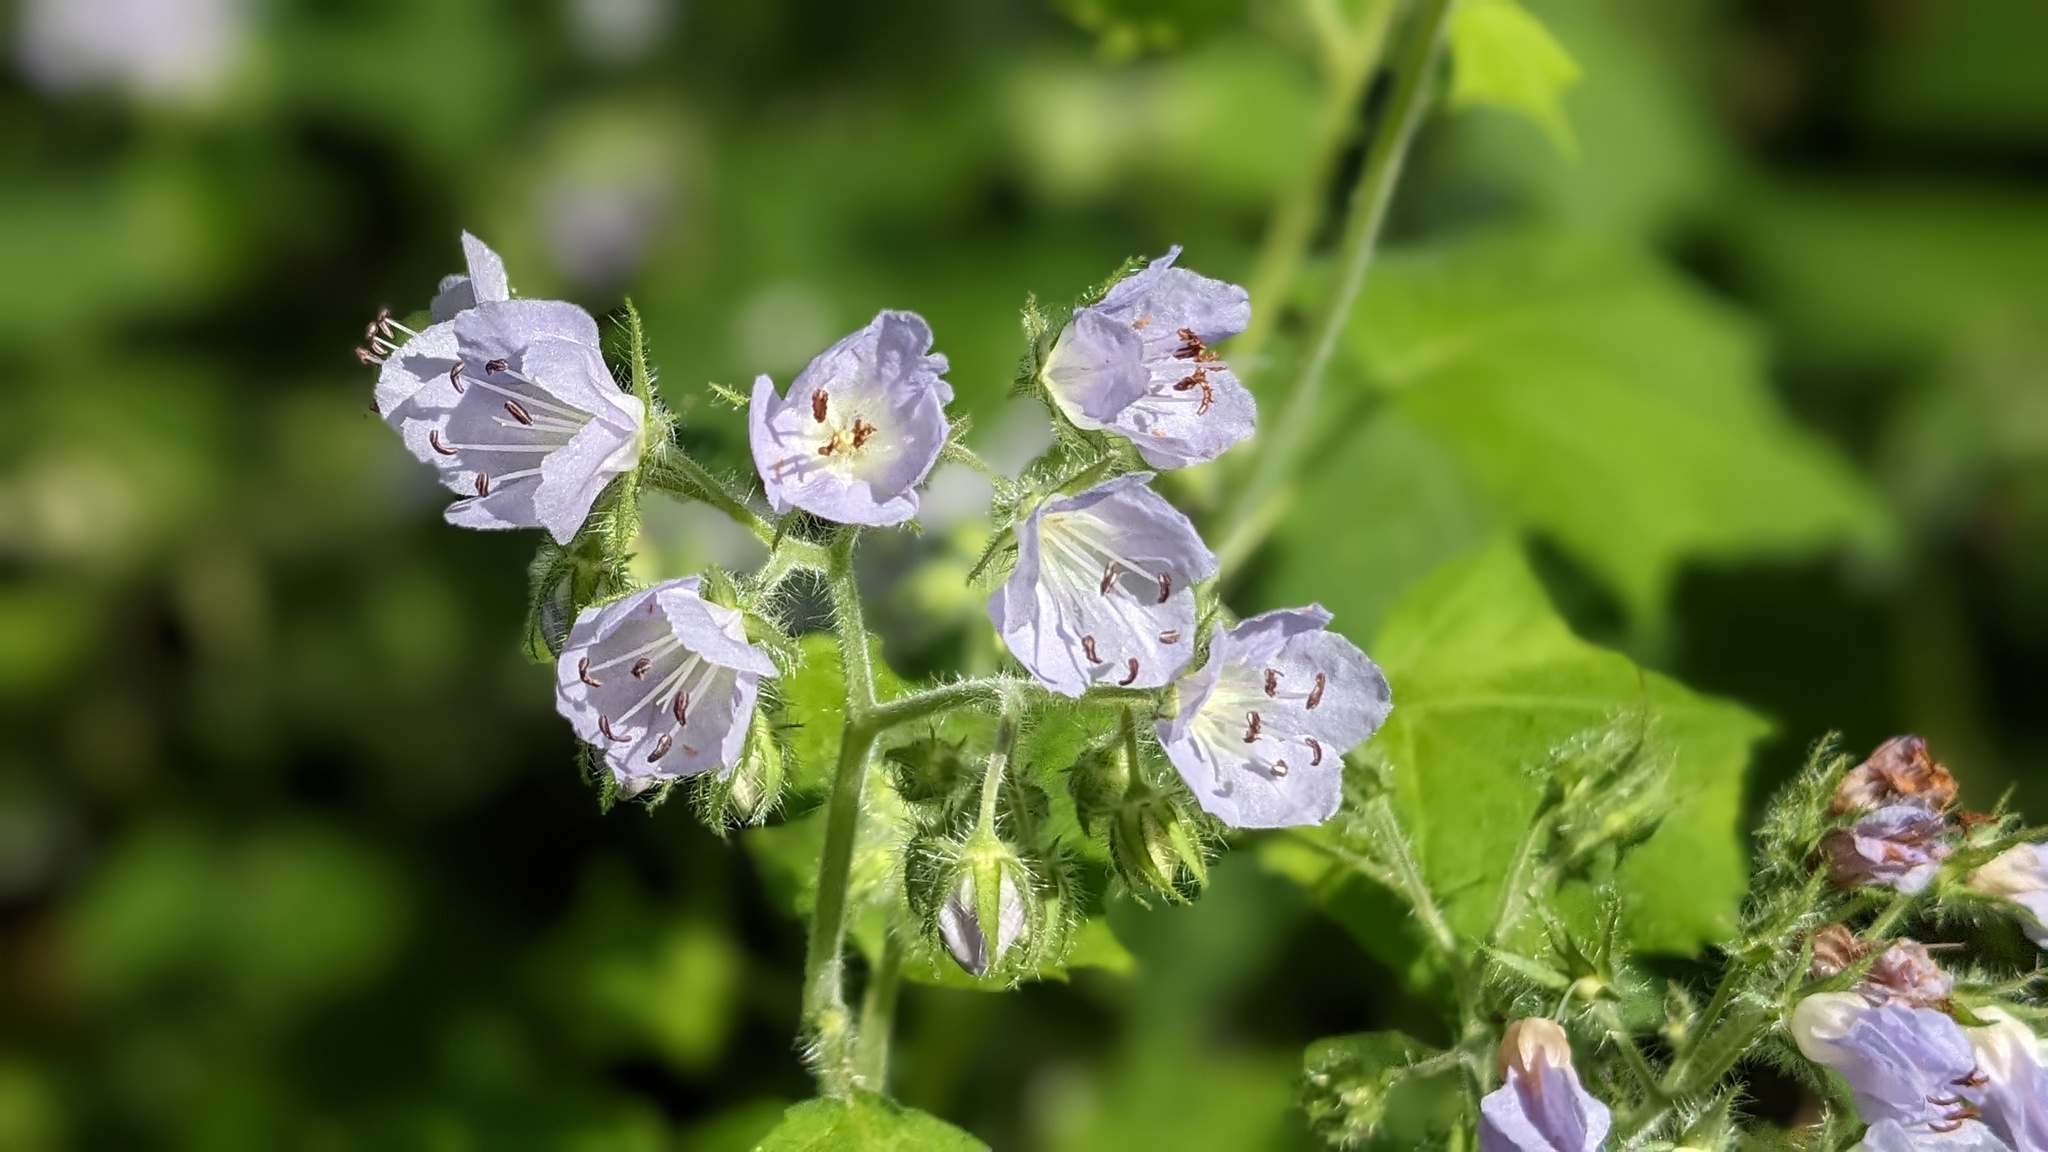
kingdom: Plantae
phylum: Tracheophyta
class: Magnoliopsida
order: Boraginales
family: Hydrophyllaceae
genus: Hydrophyllum
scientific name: Hydrophyllum appendiculatum
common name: Appendaged waterleaf
